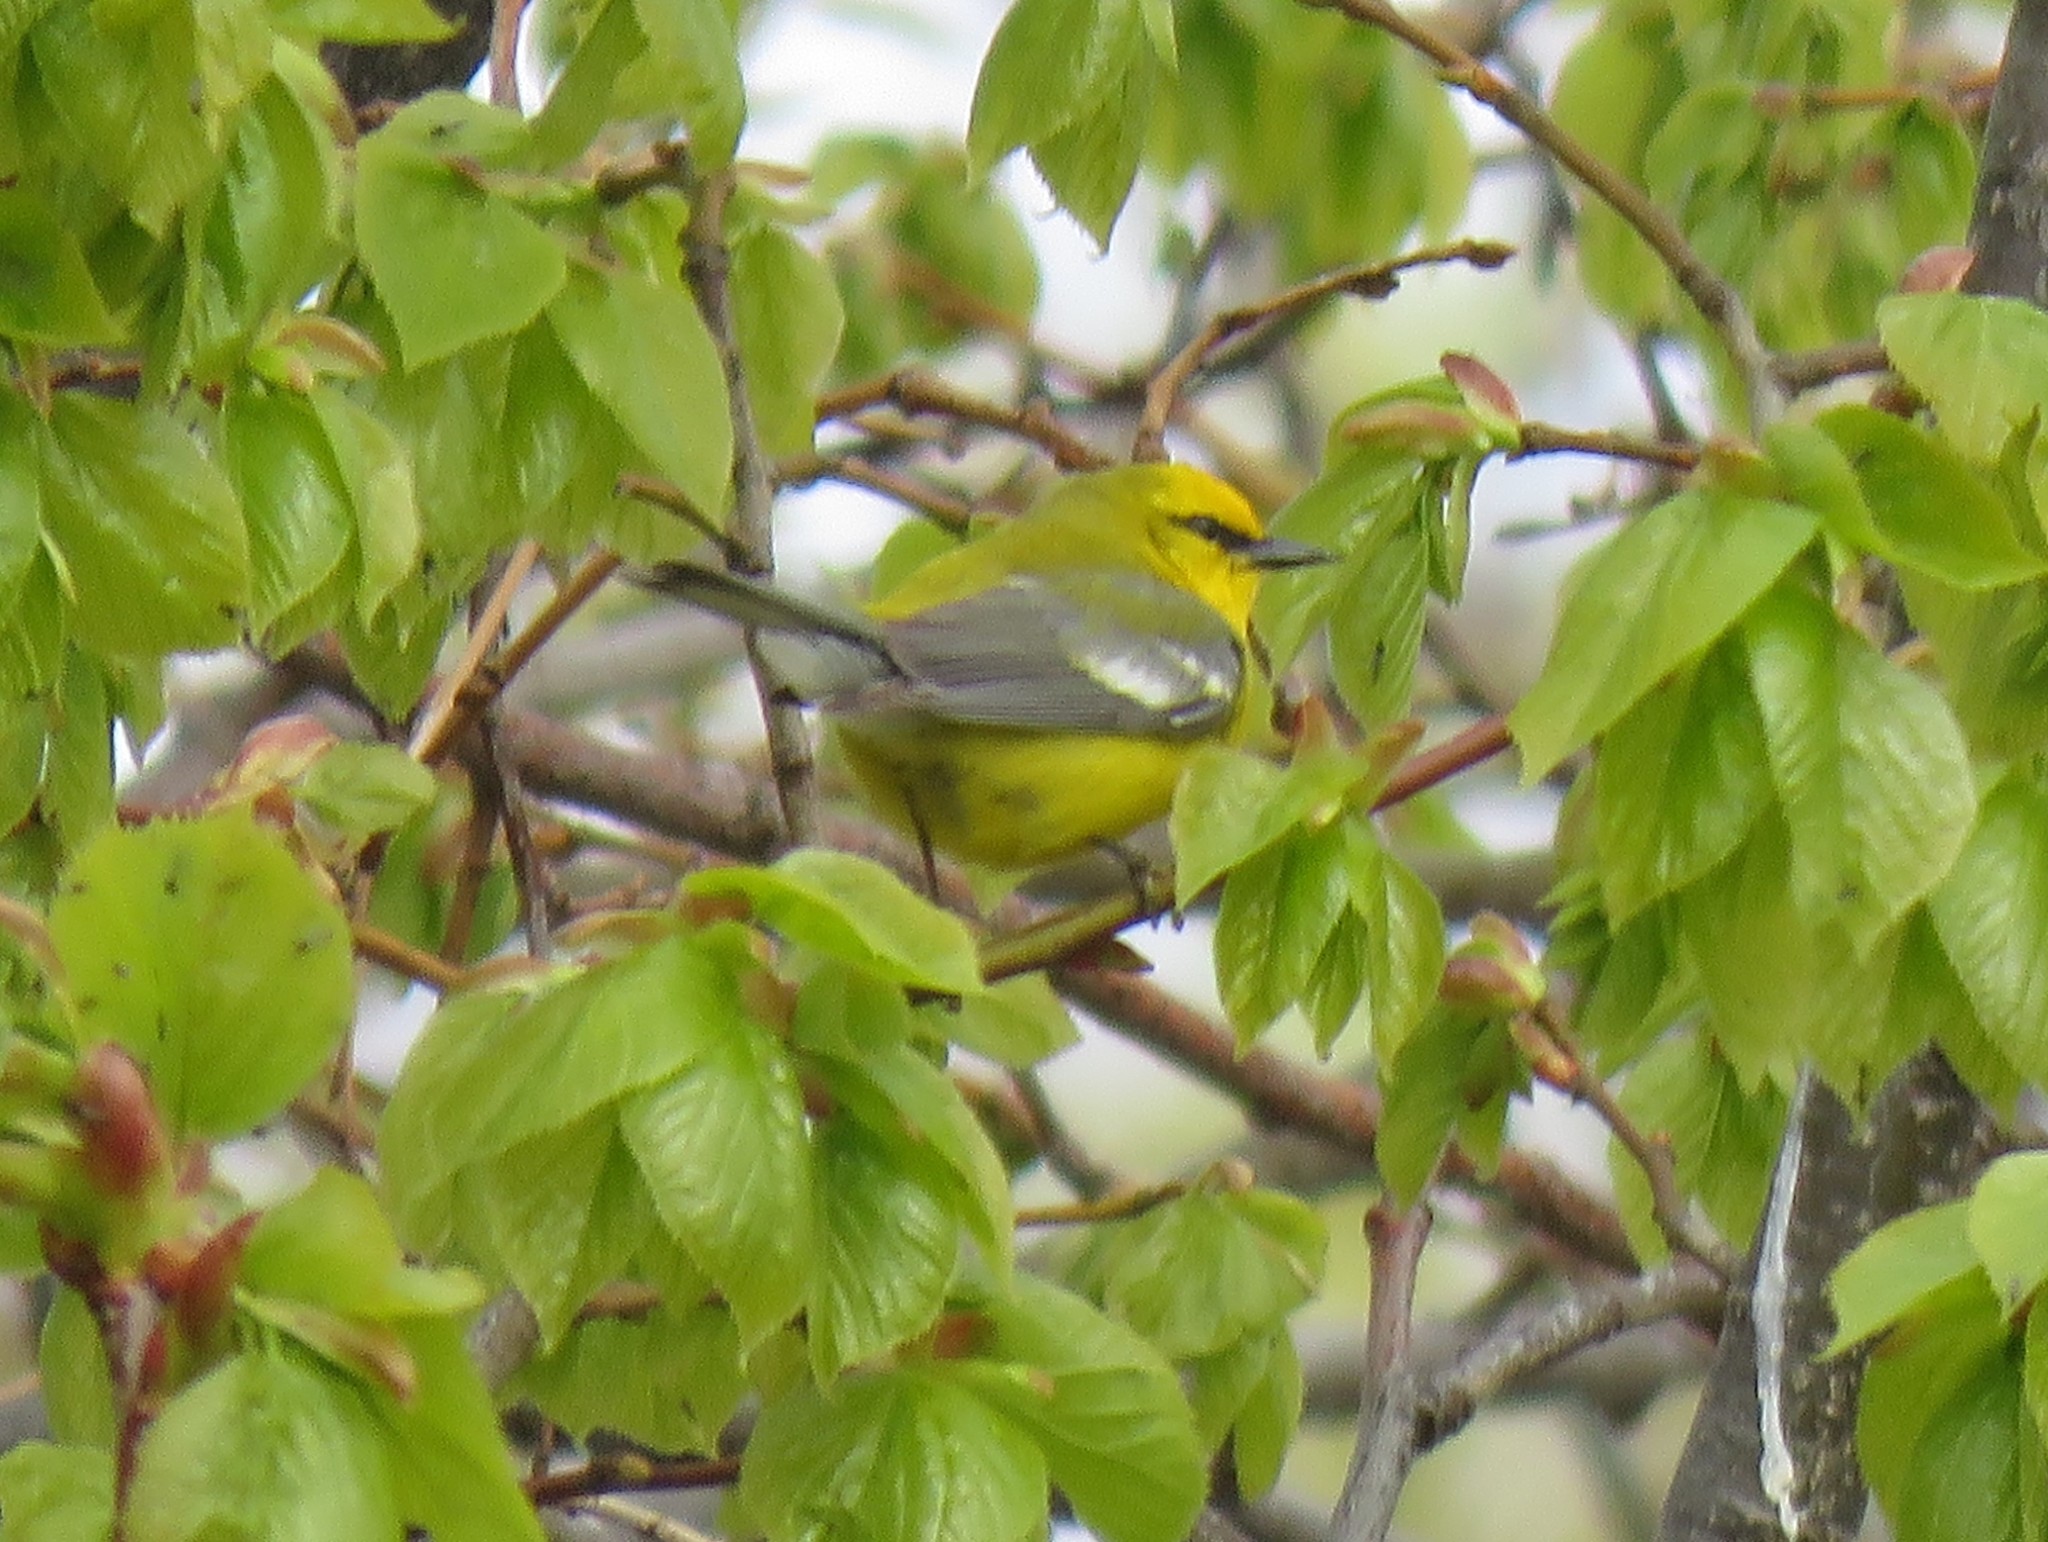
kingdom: Animalia
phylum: Chordata
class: Aves
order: Passeriformes
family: Parulidae
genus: Vermivora
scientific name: Vermivora cyanoptera
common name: Blue-winged warbler
